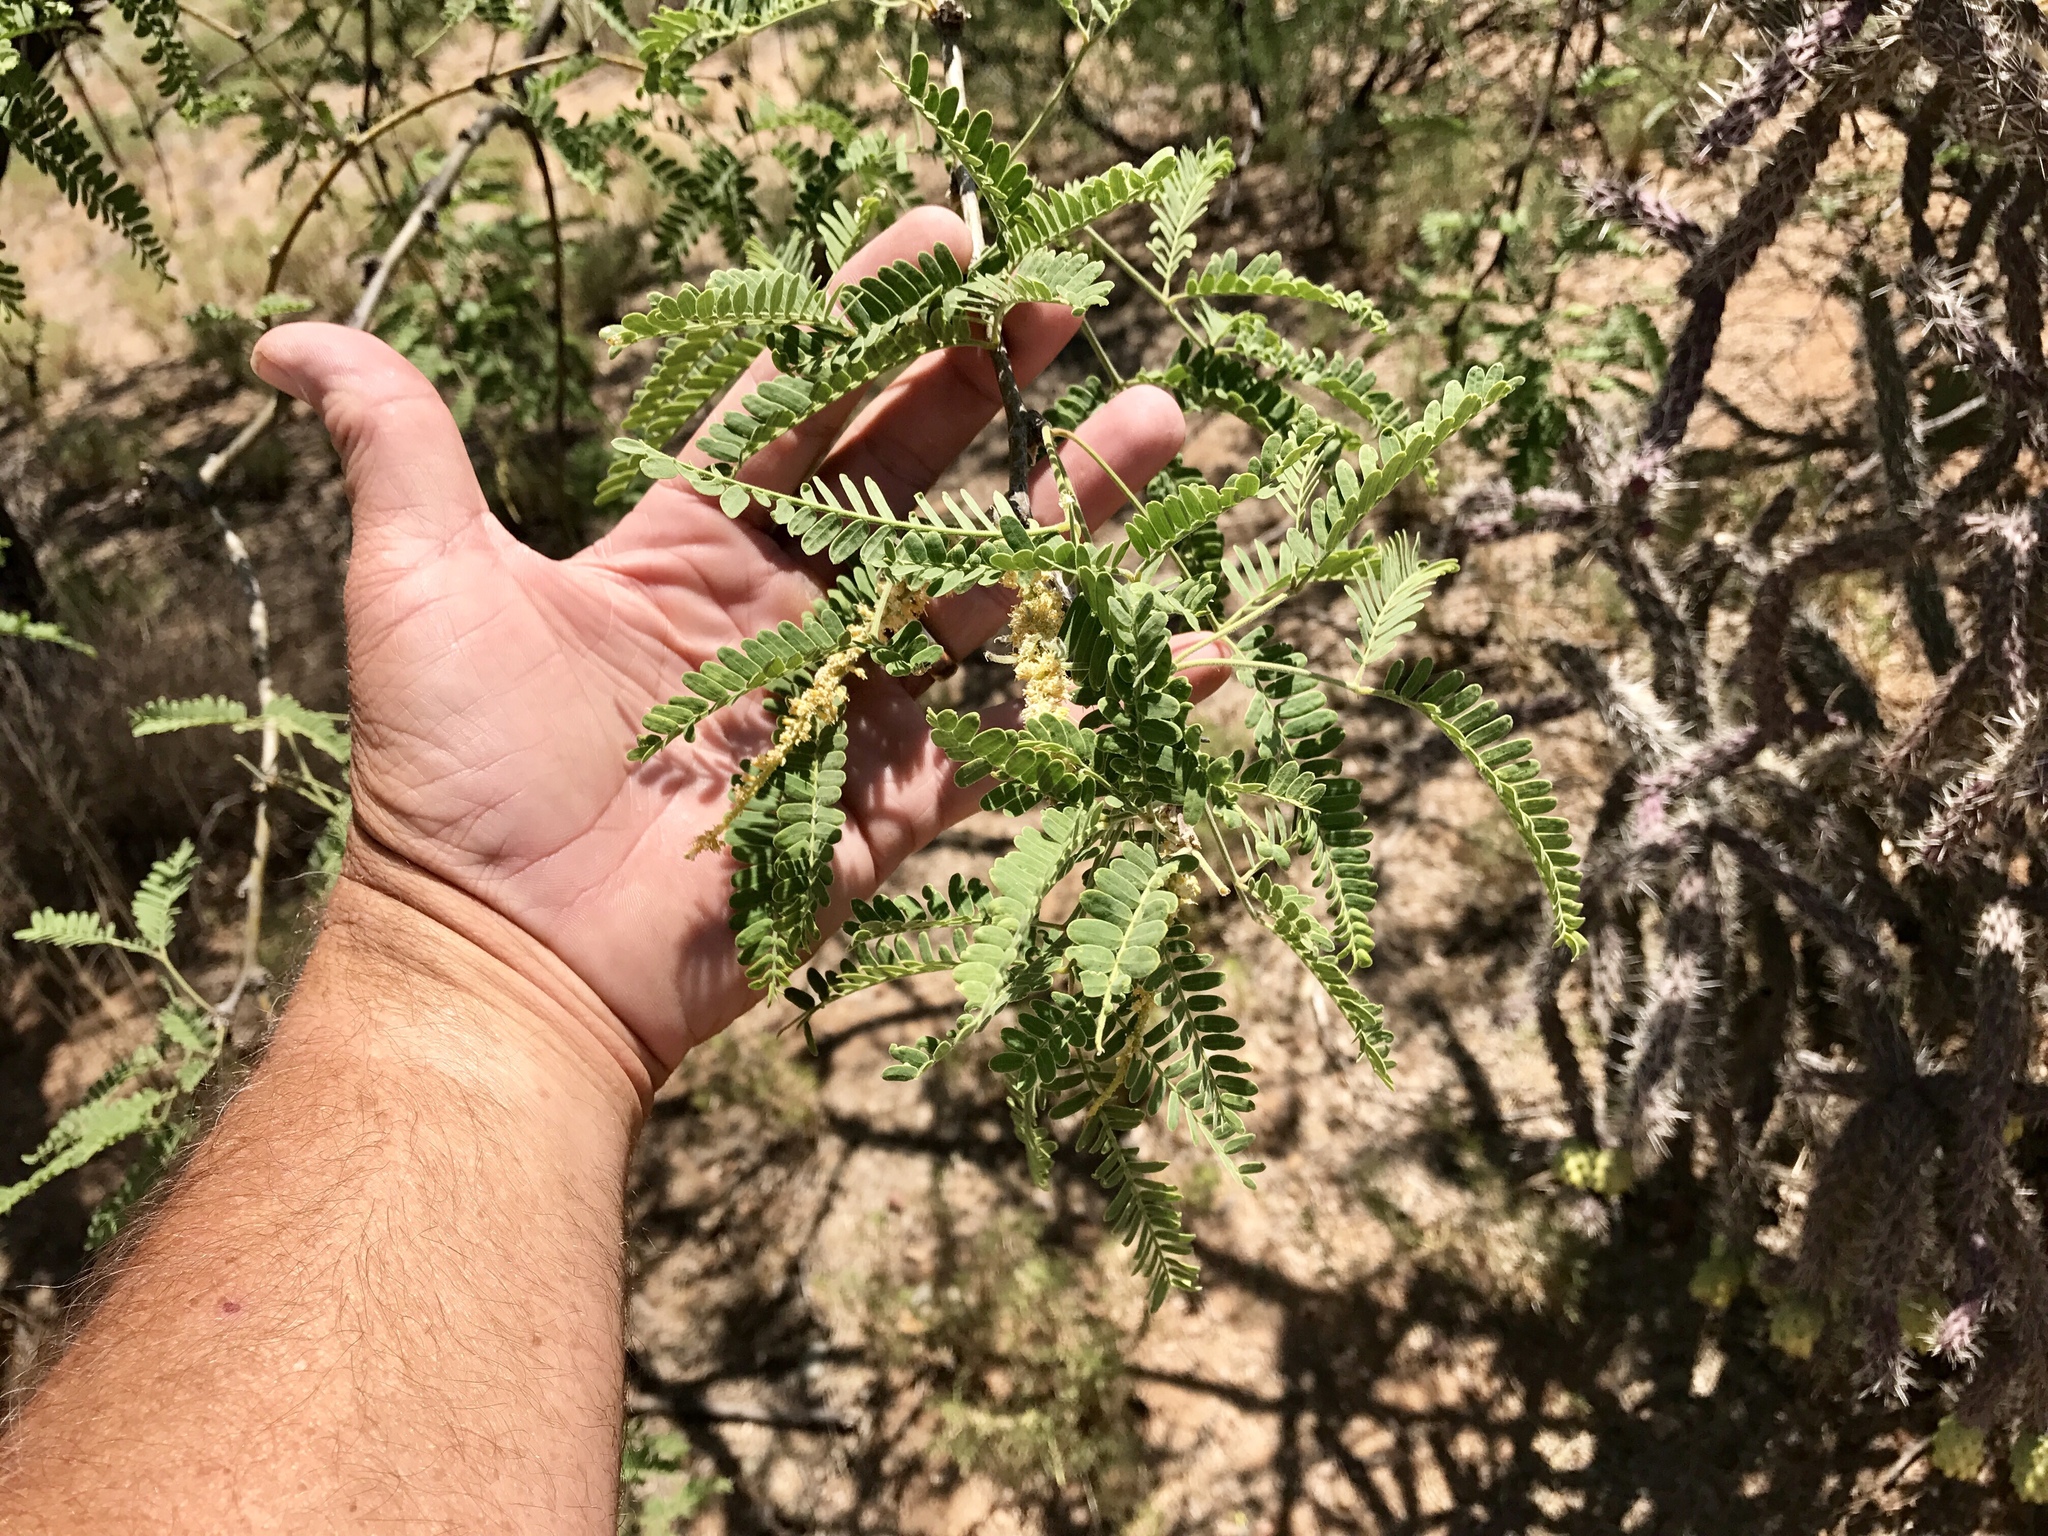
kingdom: Plantae
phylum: Tracheophyta
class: Magnoliopsida
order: Fabales
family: Fabaceae
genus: Prosopis
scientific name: Prosopis velutina
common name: Velvet mesquite
